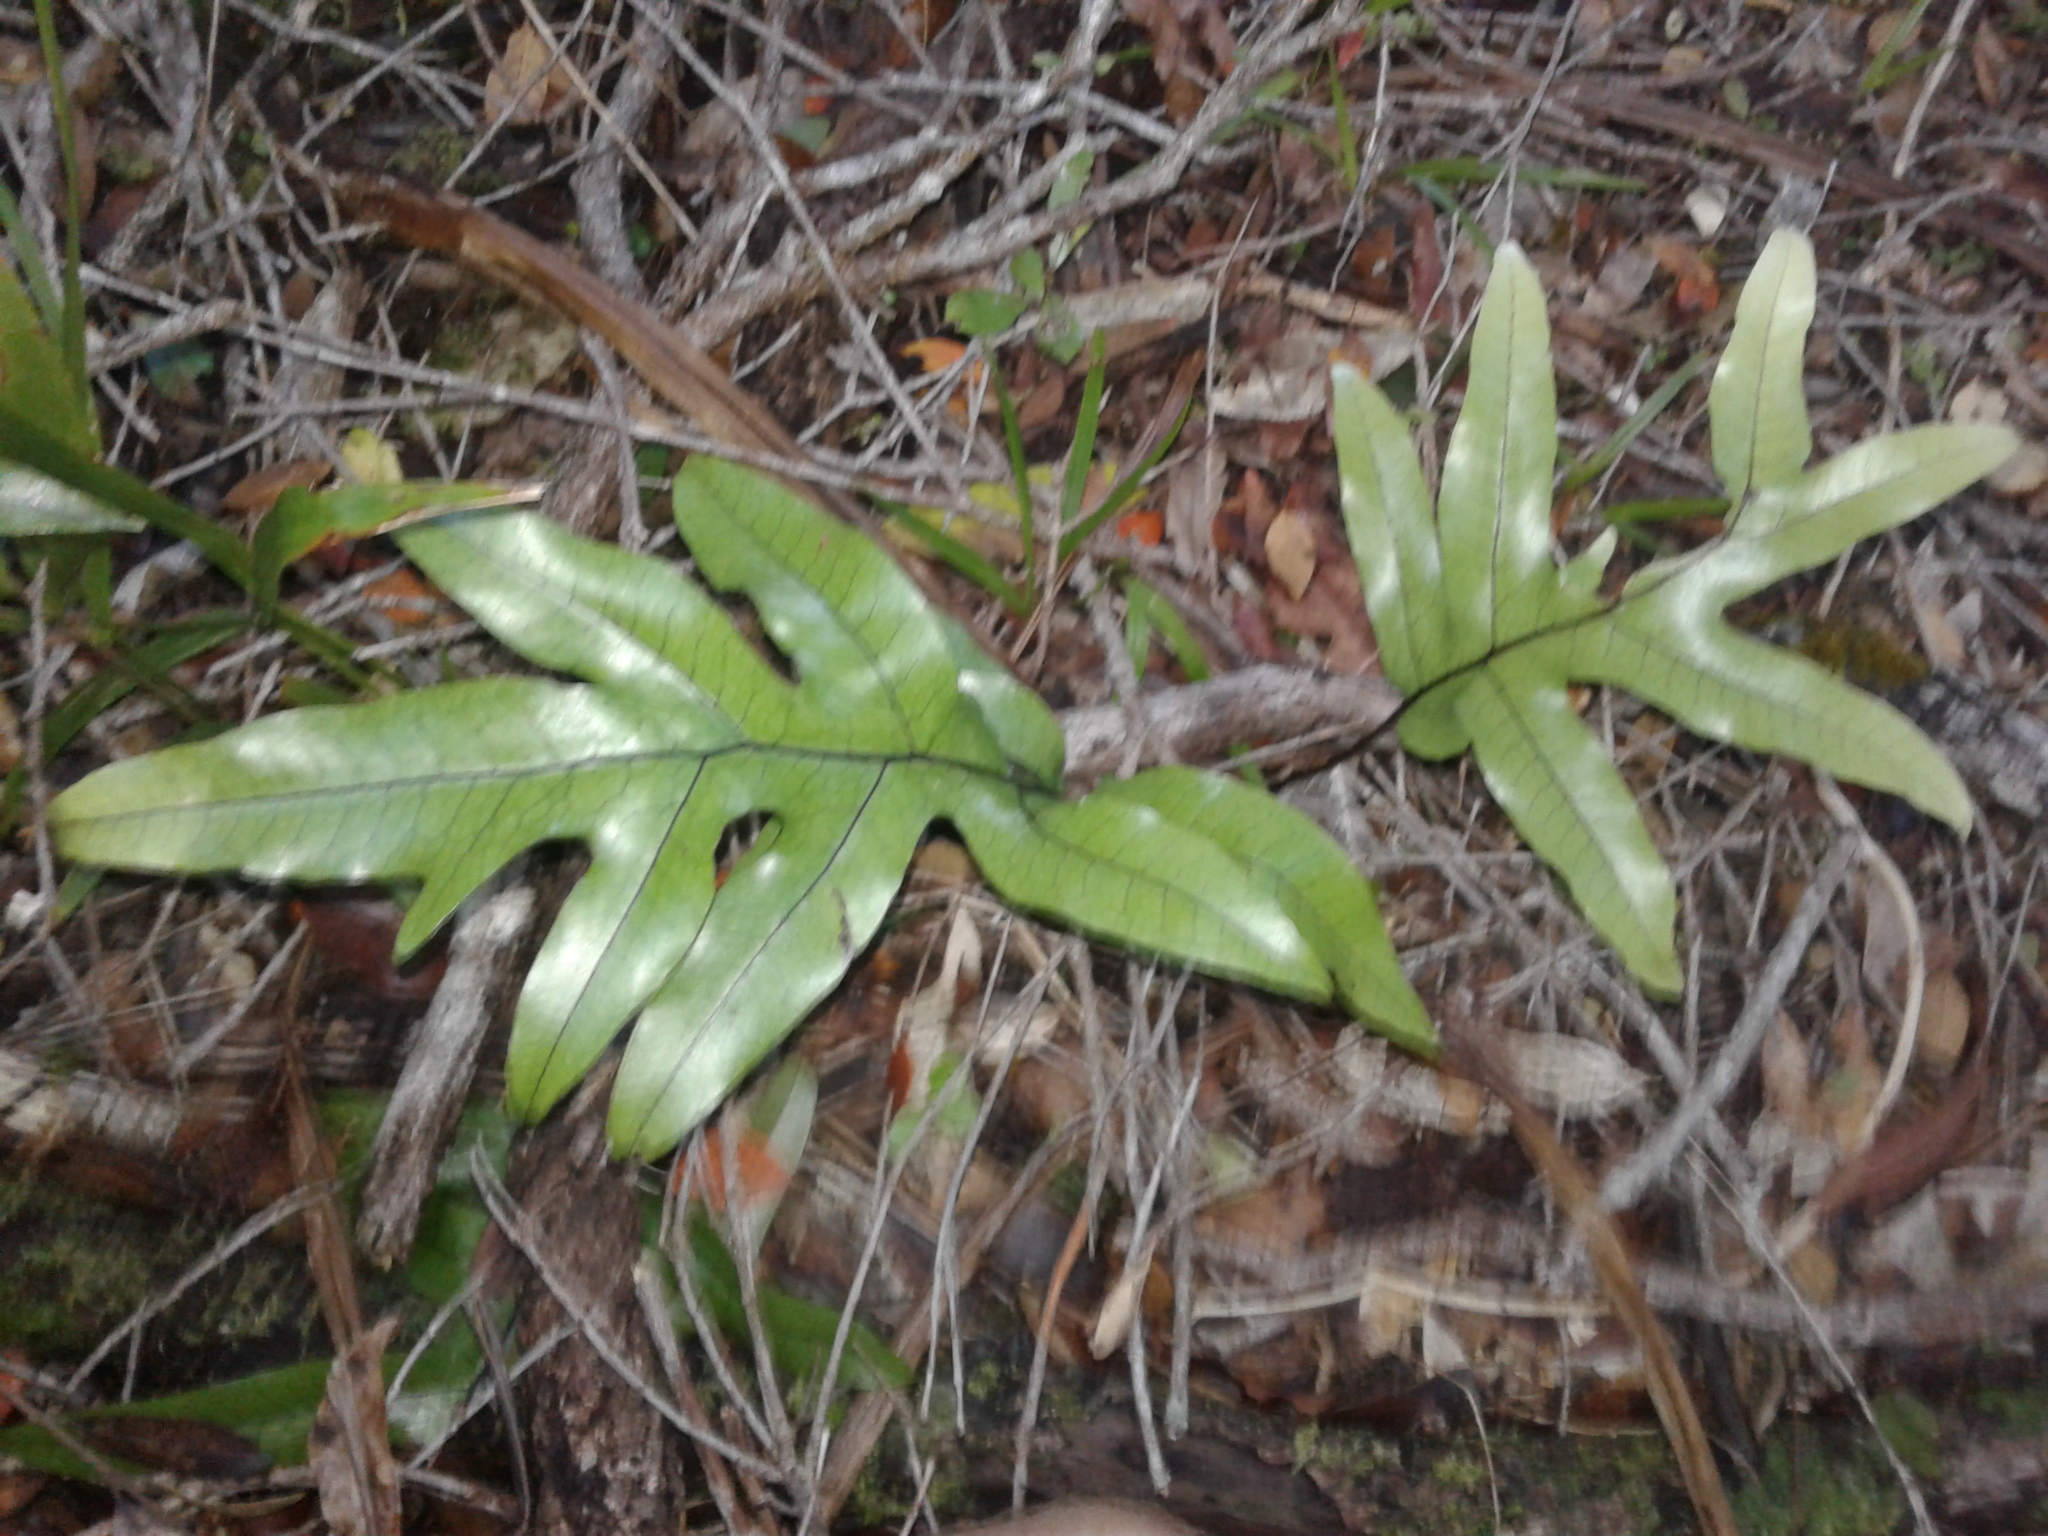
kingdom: Plantae
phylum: Tracheophyta
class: Polypodiopsida
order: Polypodiales
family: Polypodiaceae
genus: Lecanopteris
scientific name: Lecanopteris pustulata
